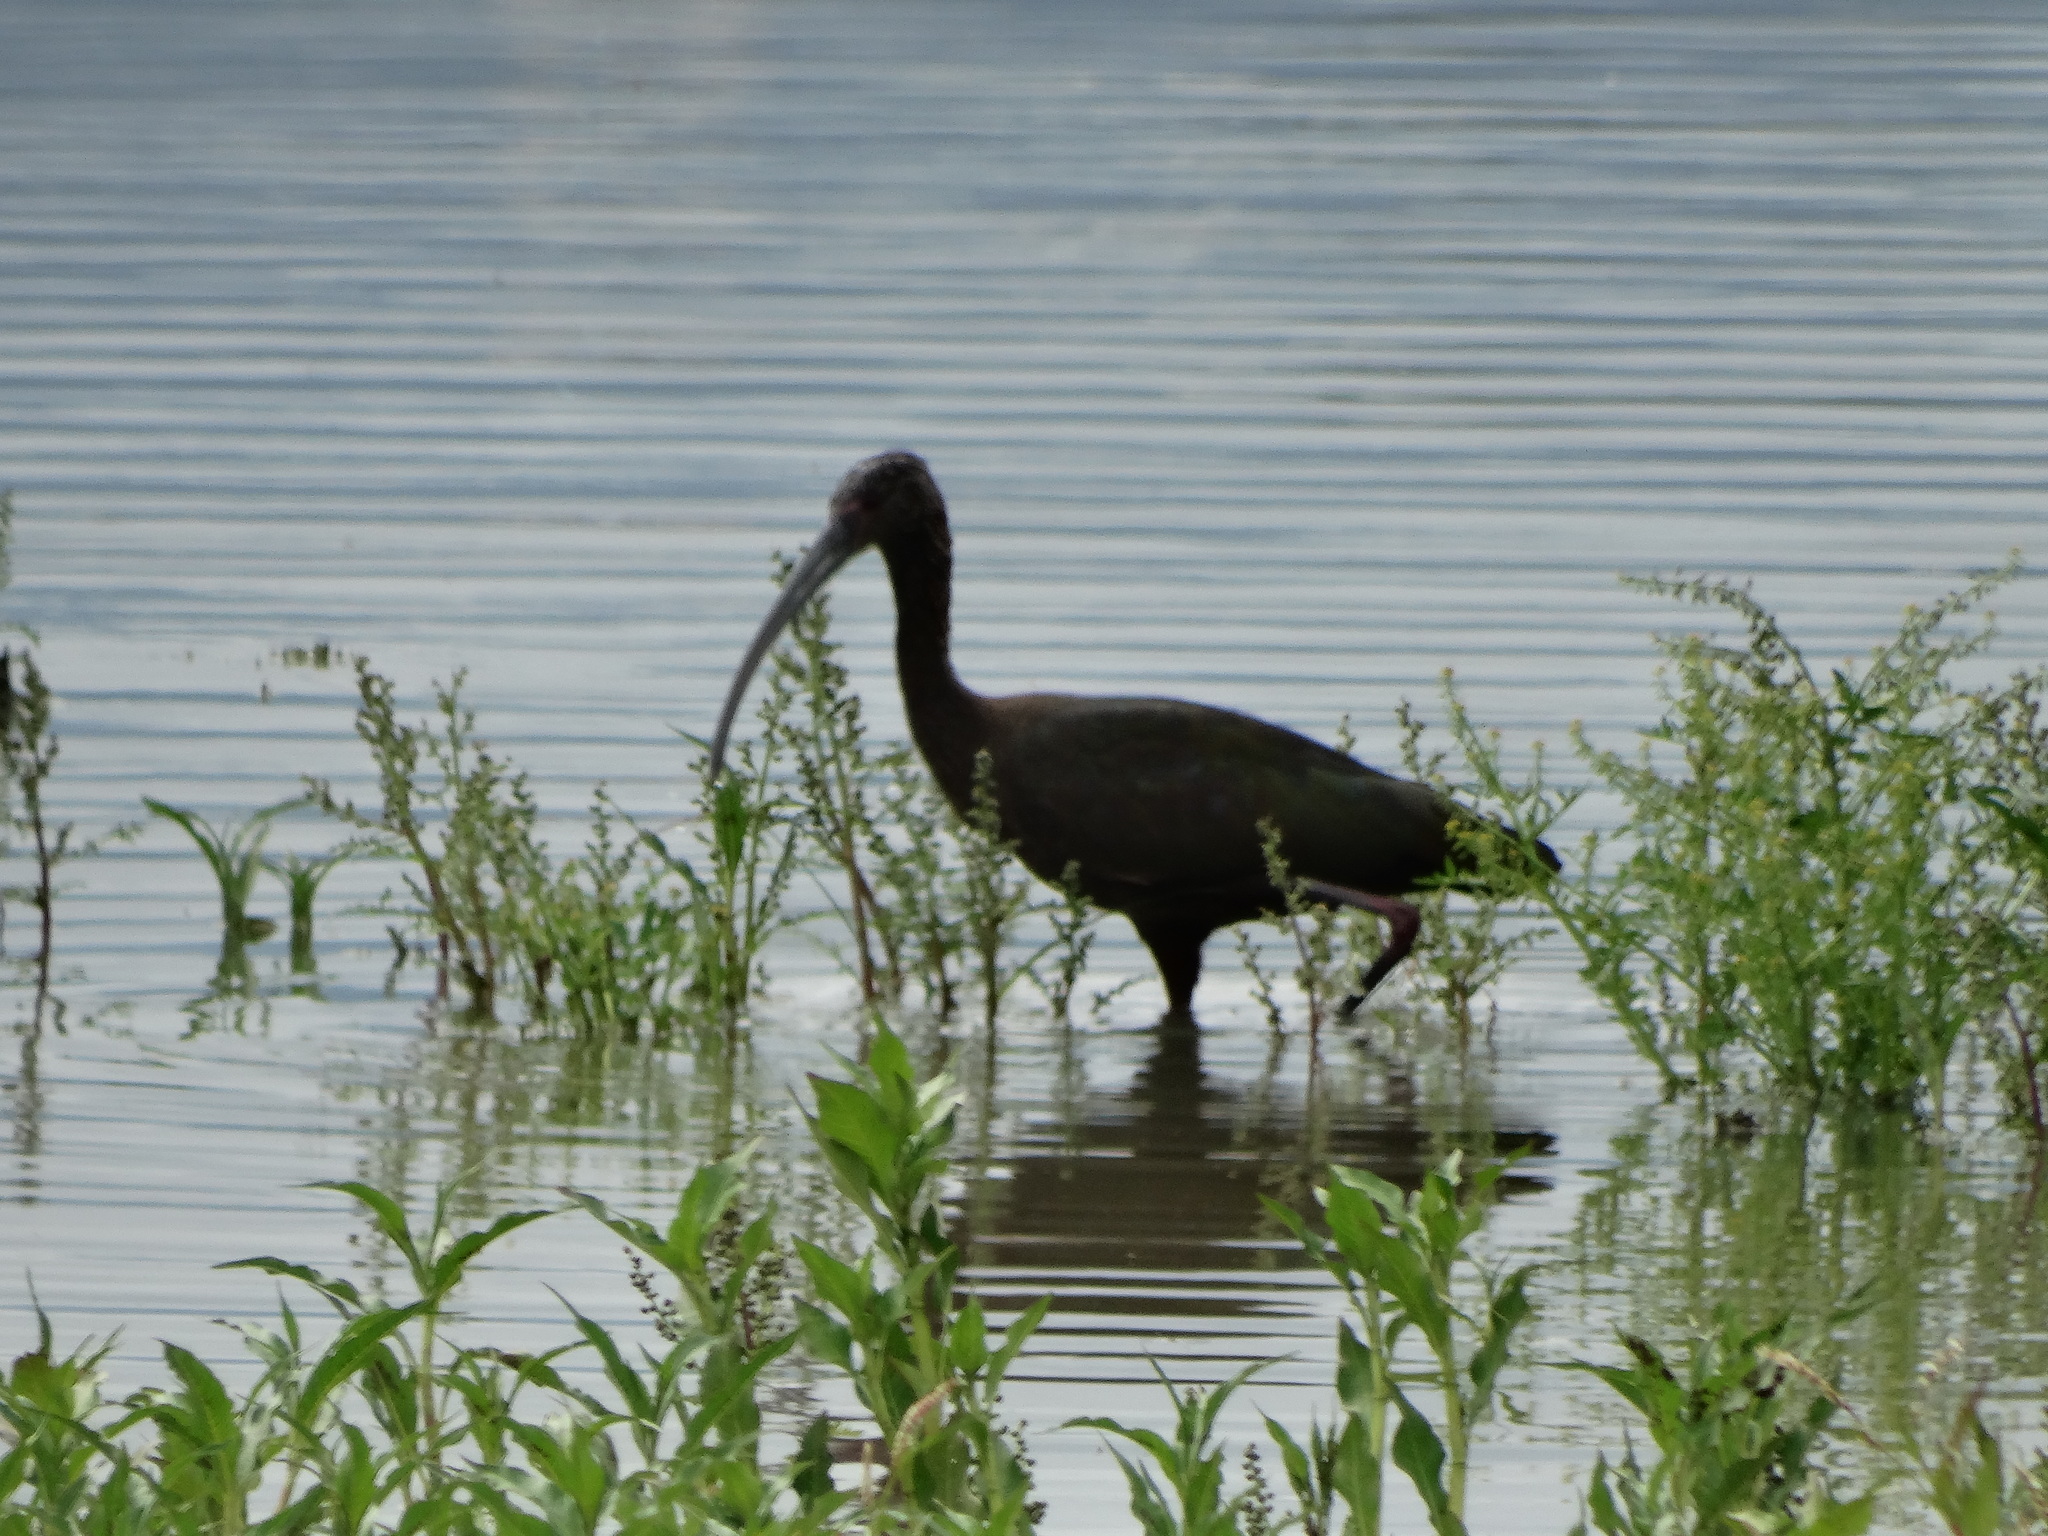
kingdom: Animalia
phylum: Chordata
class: Aves
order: Pelecaniformes
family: Threskiornithidae
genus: Plegadis
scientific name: Plegadis chihi
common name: White-faced ibis
